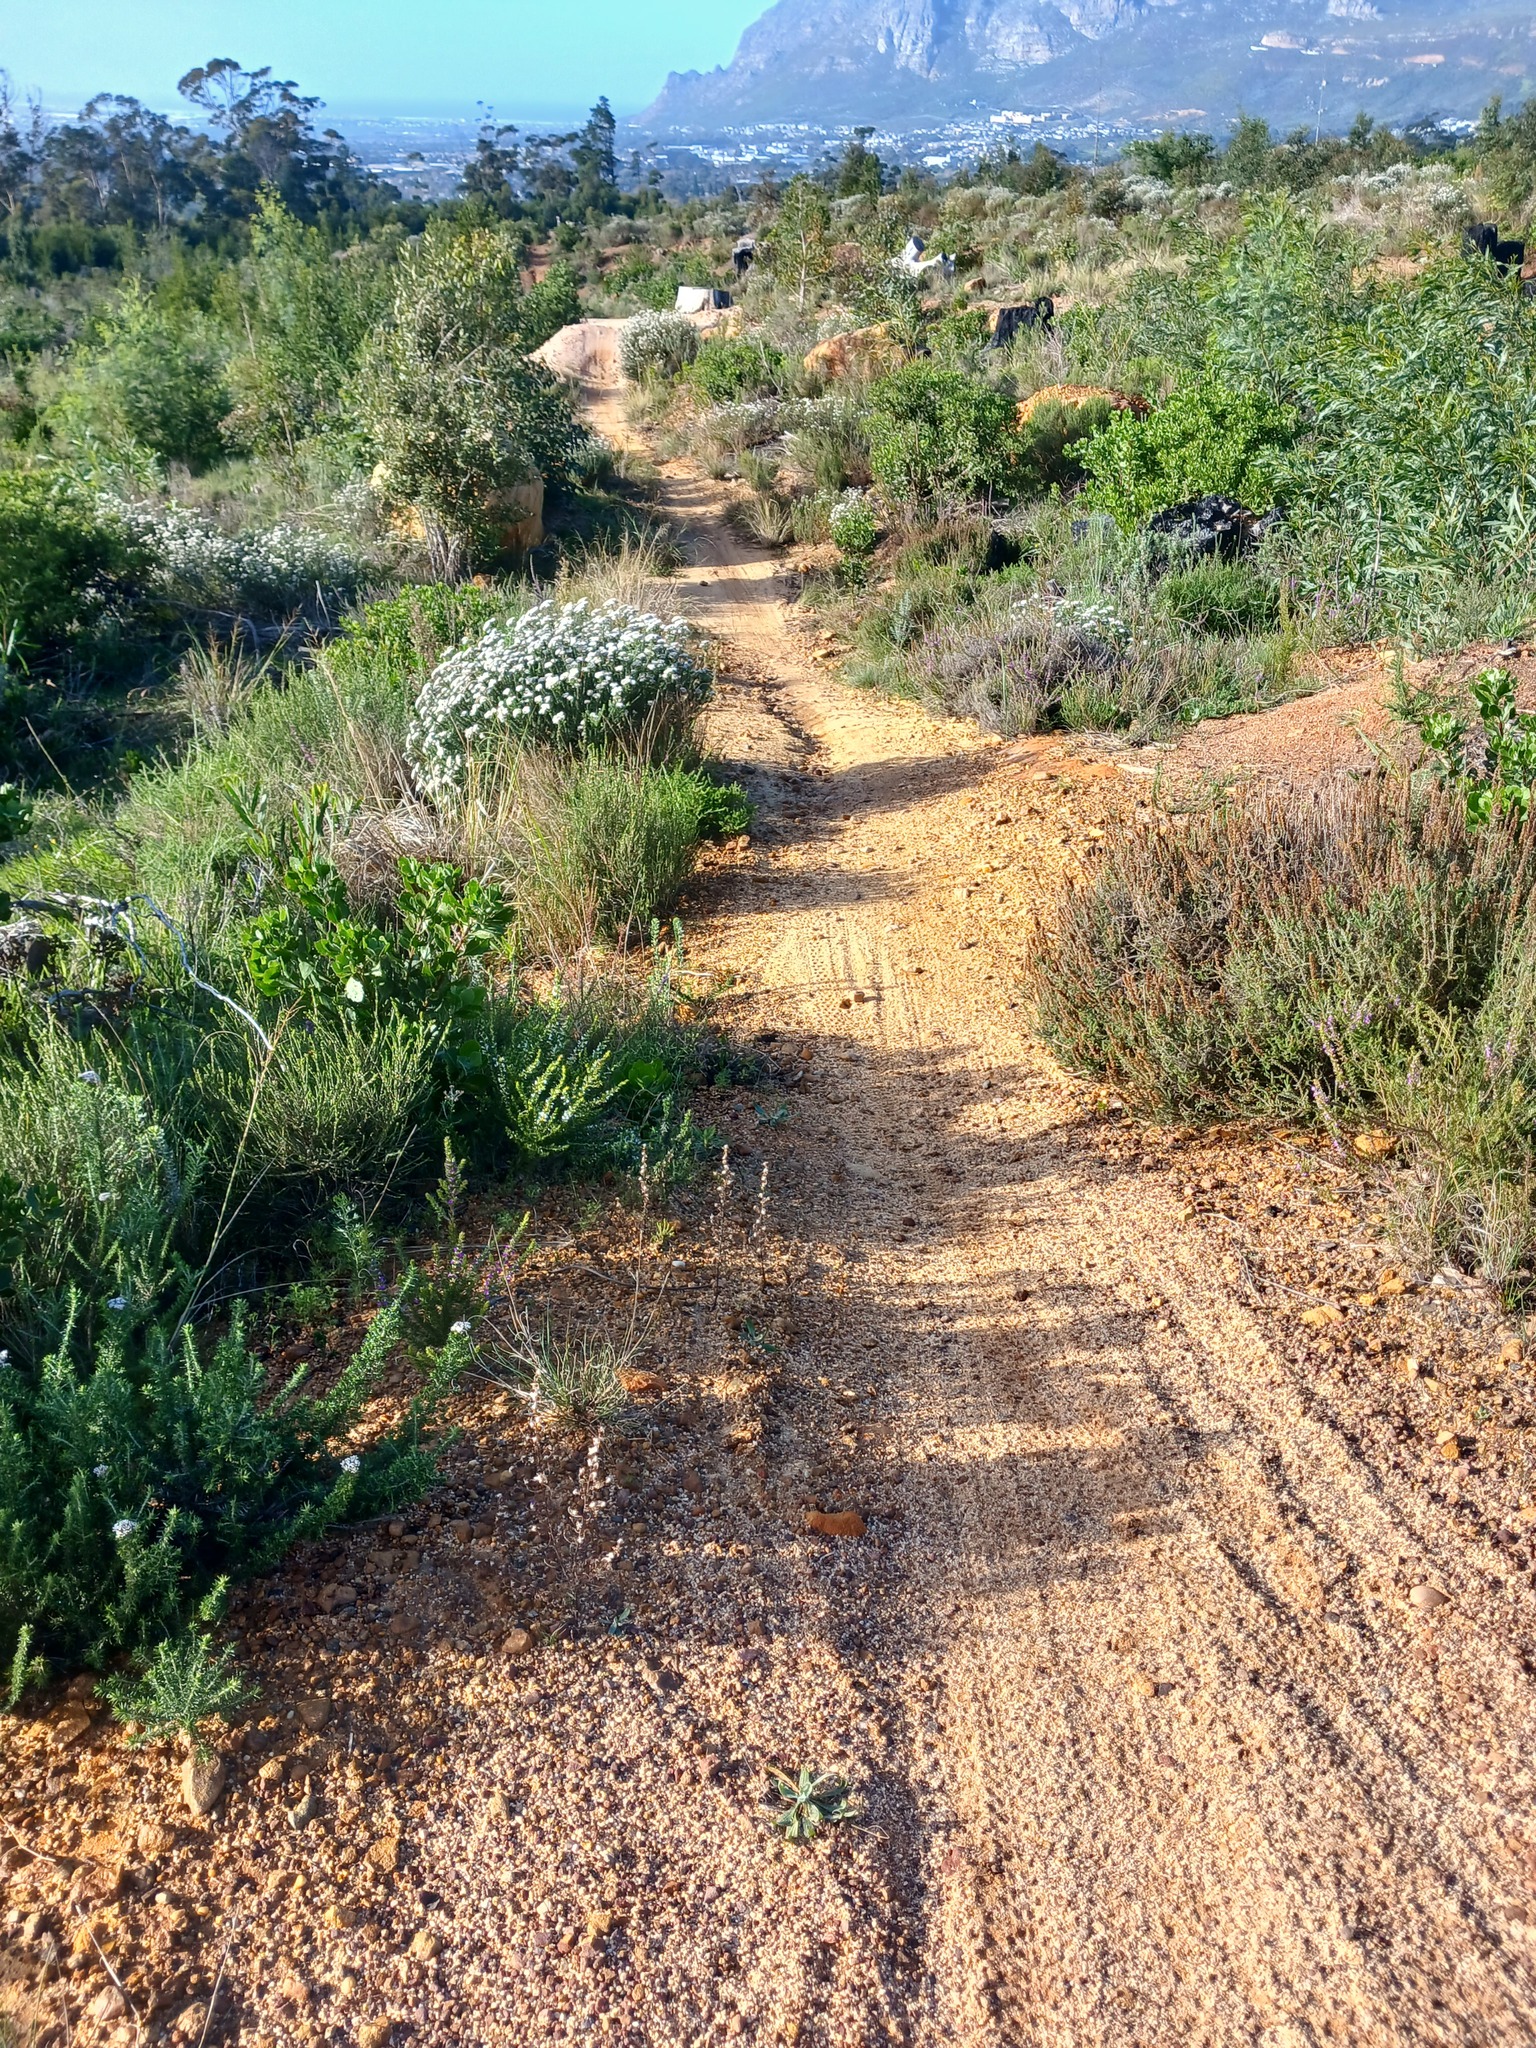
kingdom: Plantae
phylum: Tracheophyta
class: Magnoliopsida
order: Asterales
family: Asteraceae
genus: Metalasia
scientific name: Metalasia densa
